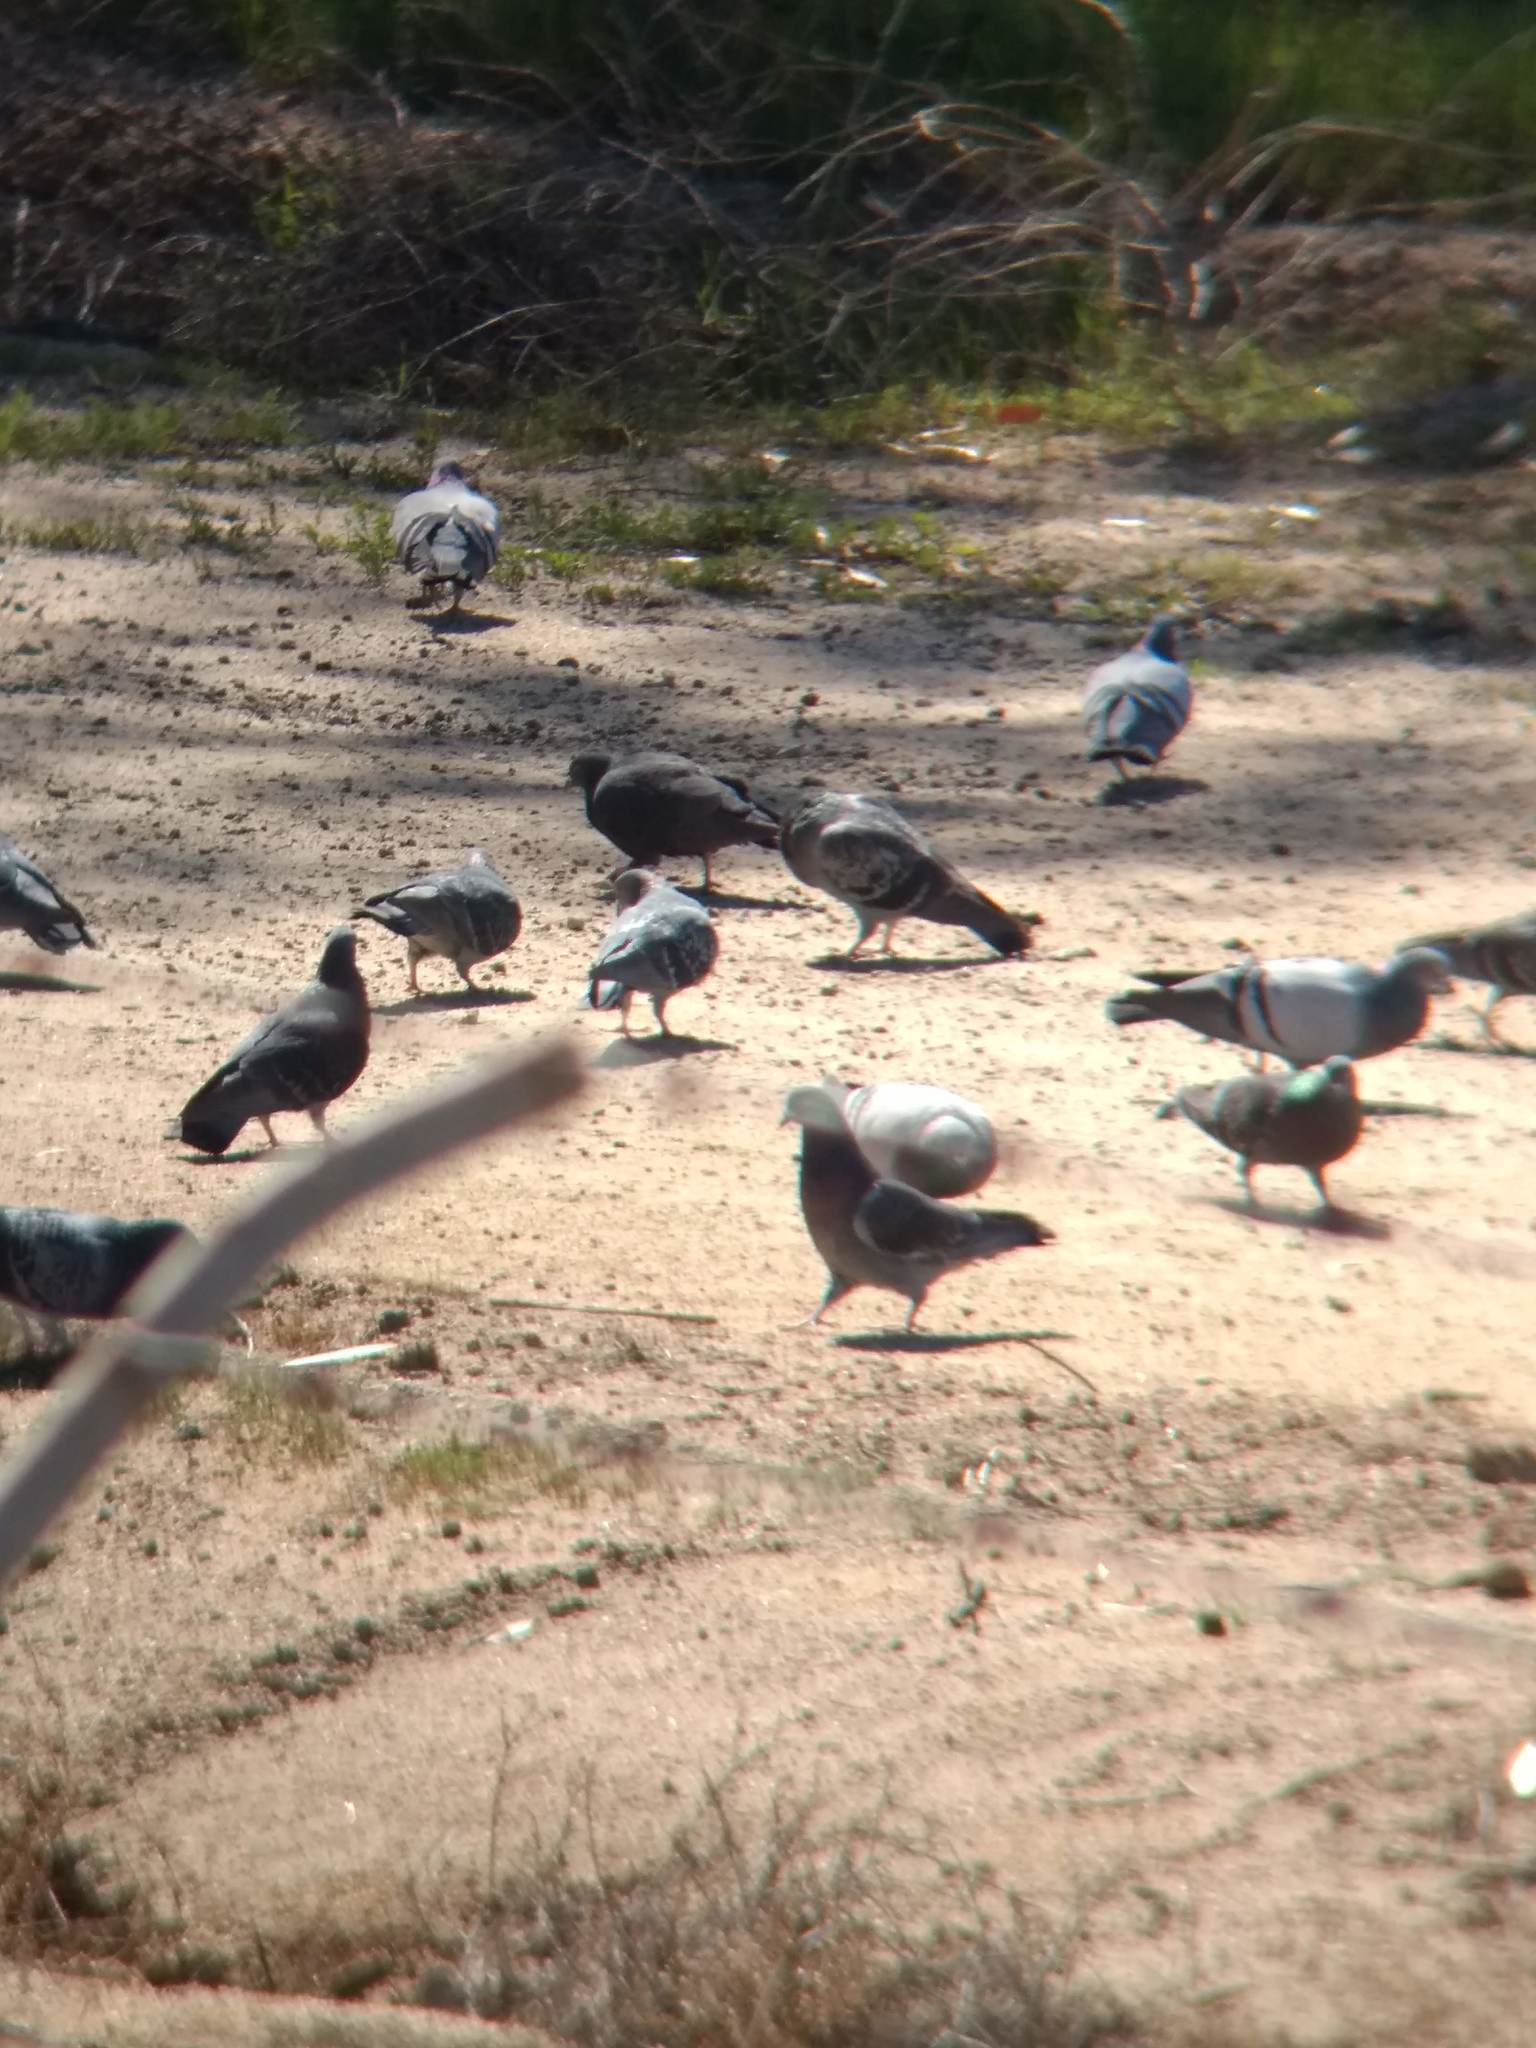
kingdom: Animalia
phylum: Chordata
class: Aves
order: Columbiformes
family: Columbidae
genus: Columba
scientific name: Columba livia
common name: Rock pigeon
